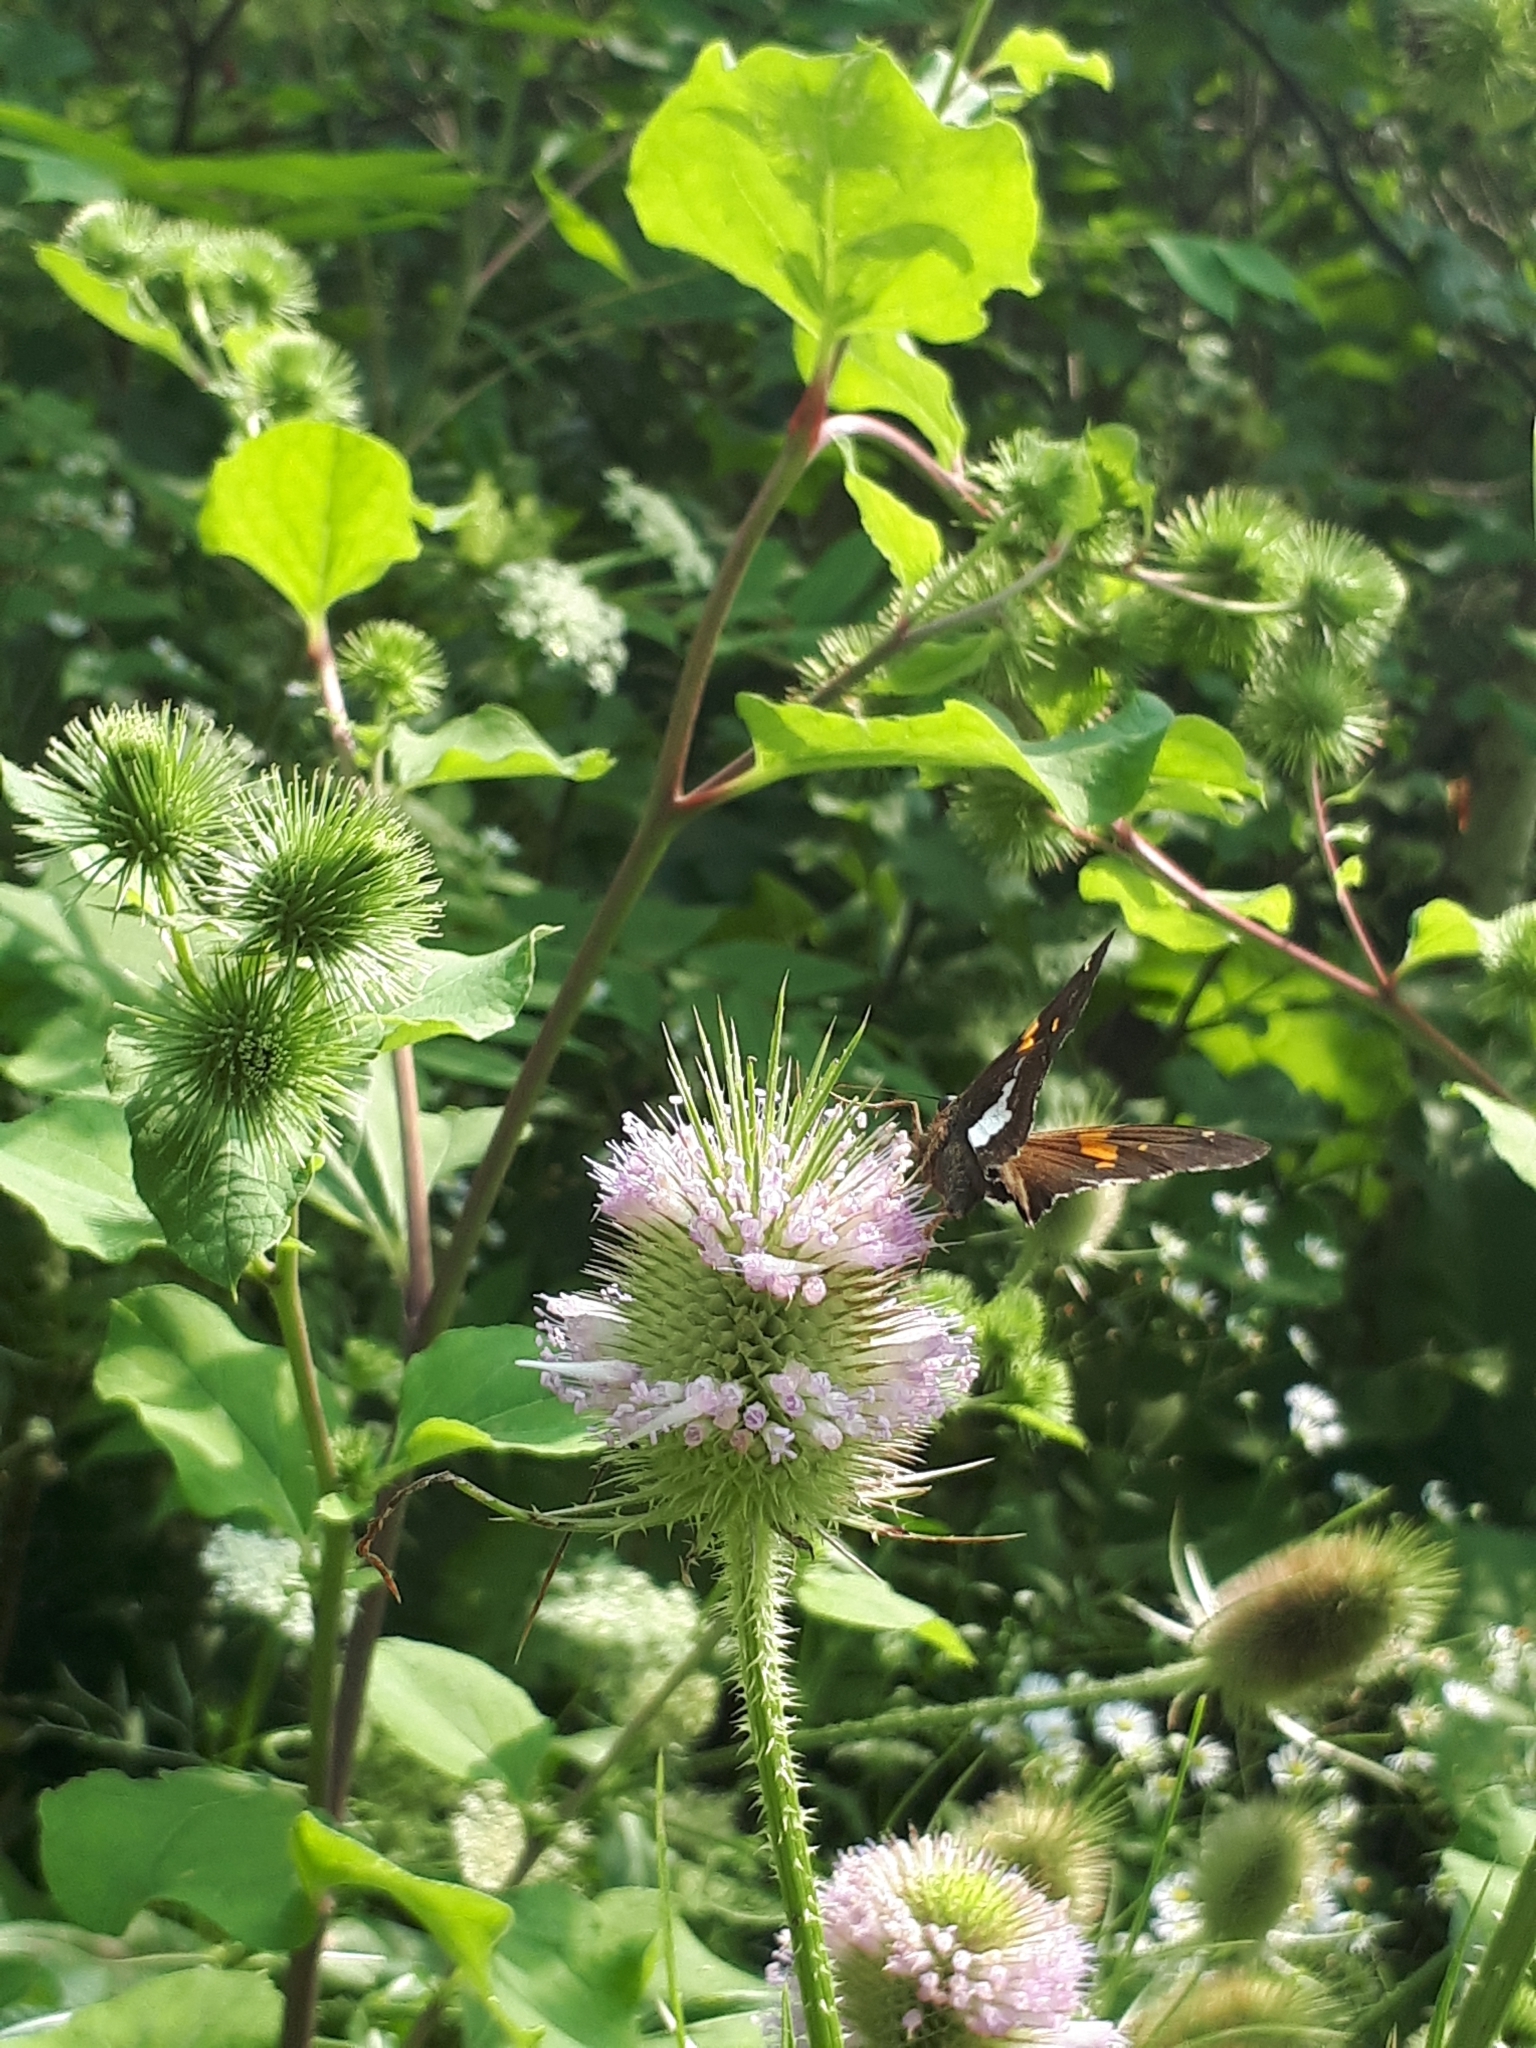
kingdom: Animalia
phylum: Arthropoda
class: Insecta
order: Lepidoptera
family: Hesperiidae
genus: Epargyreus
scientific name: Epargyreus clarus
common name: Silver-spotted skipper
